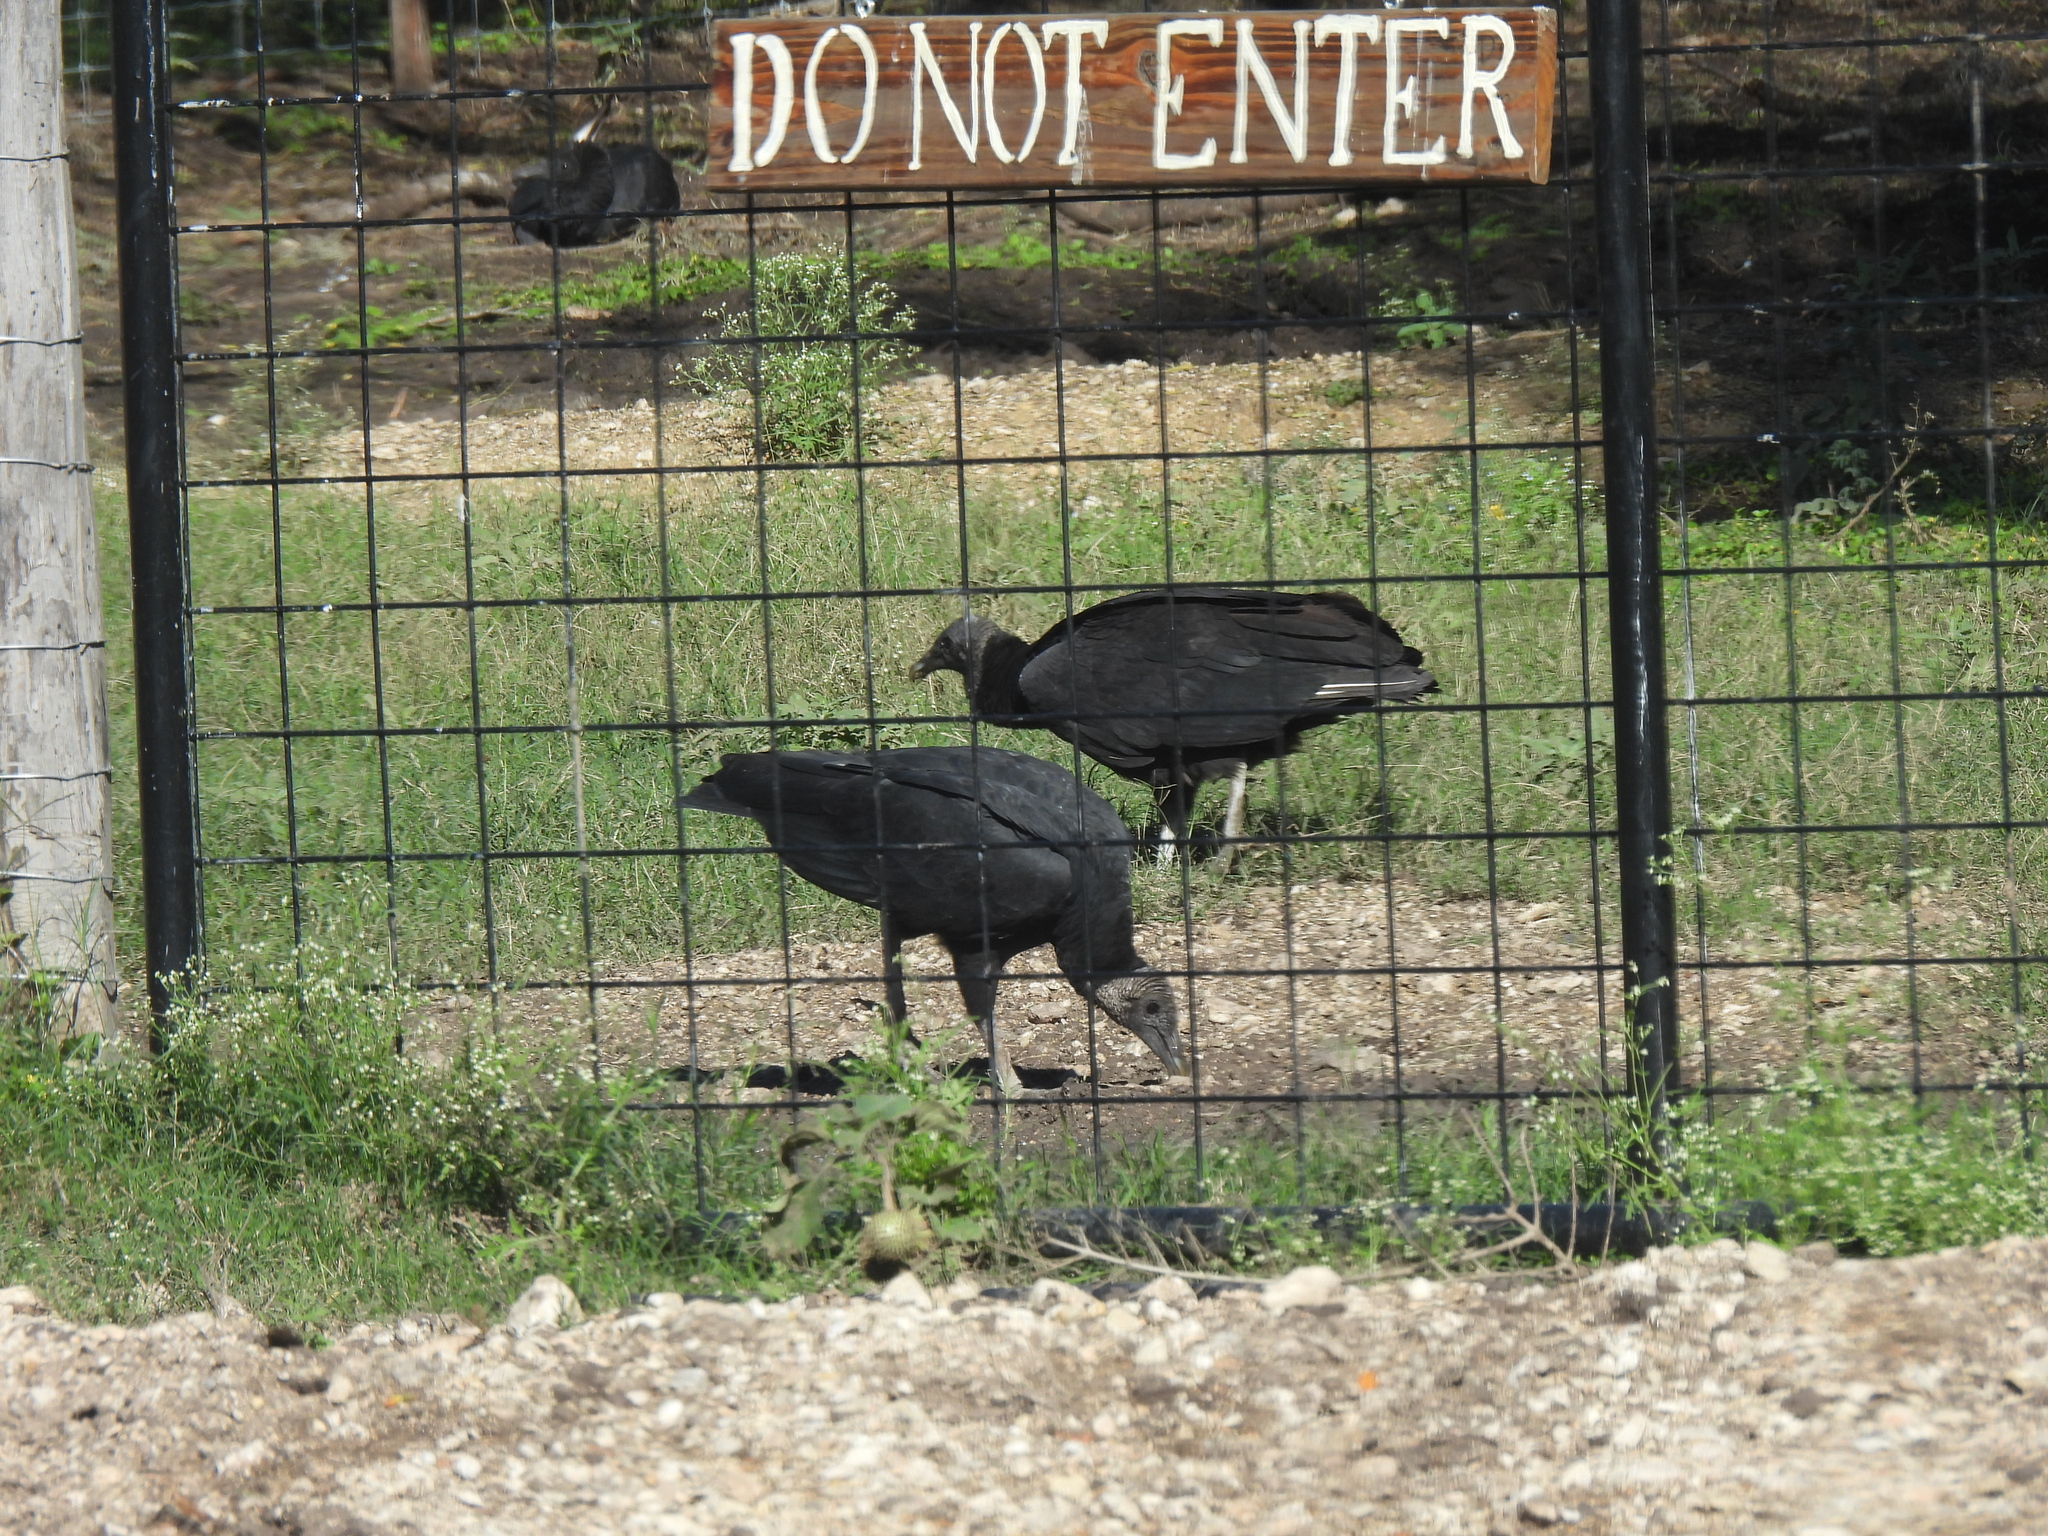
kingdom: Animalia
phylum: Chordata
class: Aves
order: Accipitriformes
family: Cathartidae
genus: Coragyps
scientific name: Coragyps atratus
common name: Black vulture
